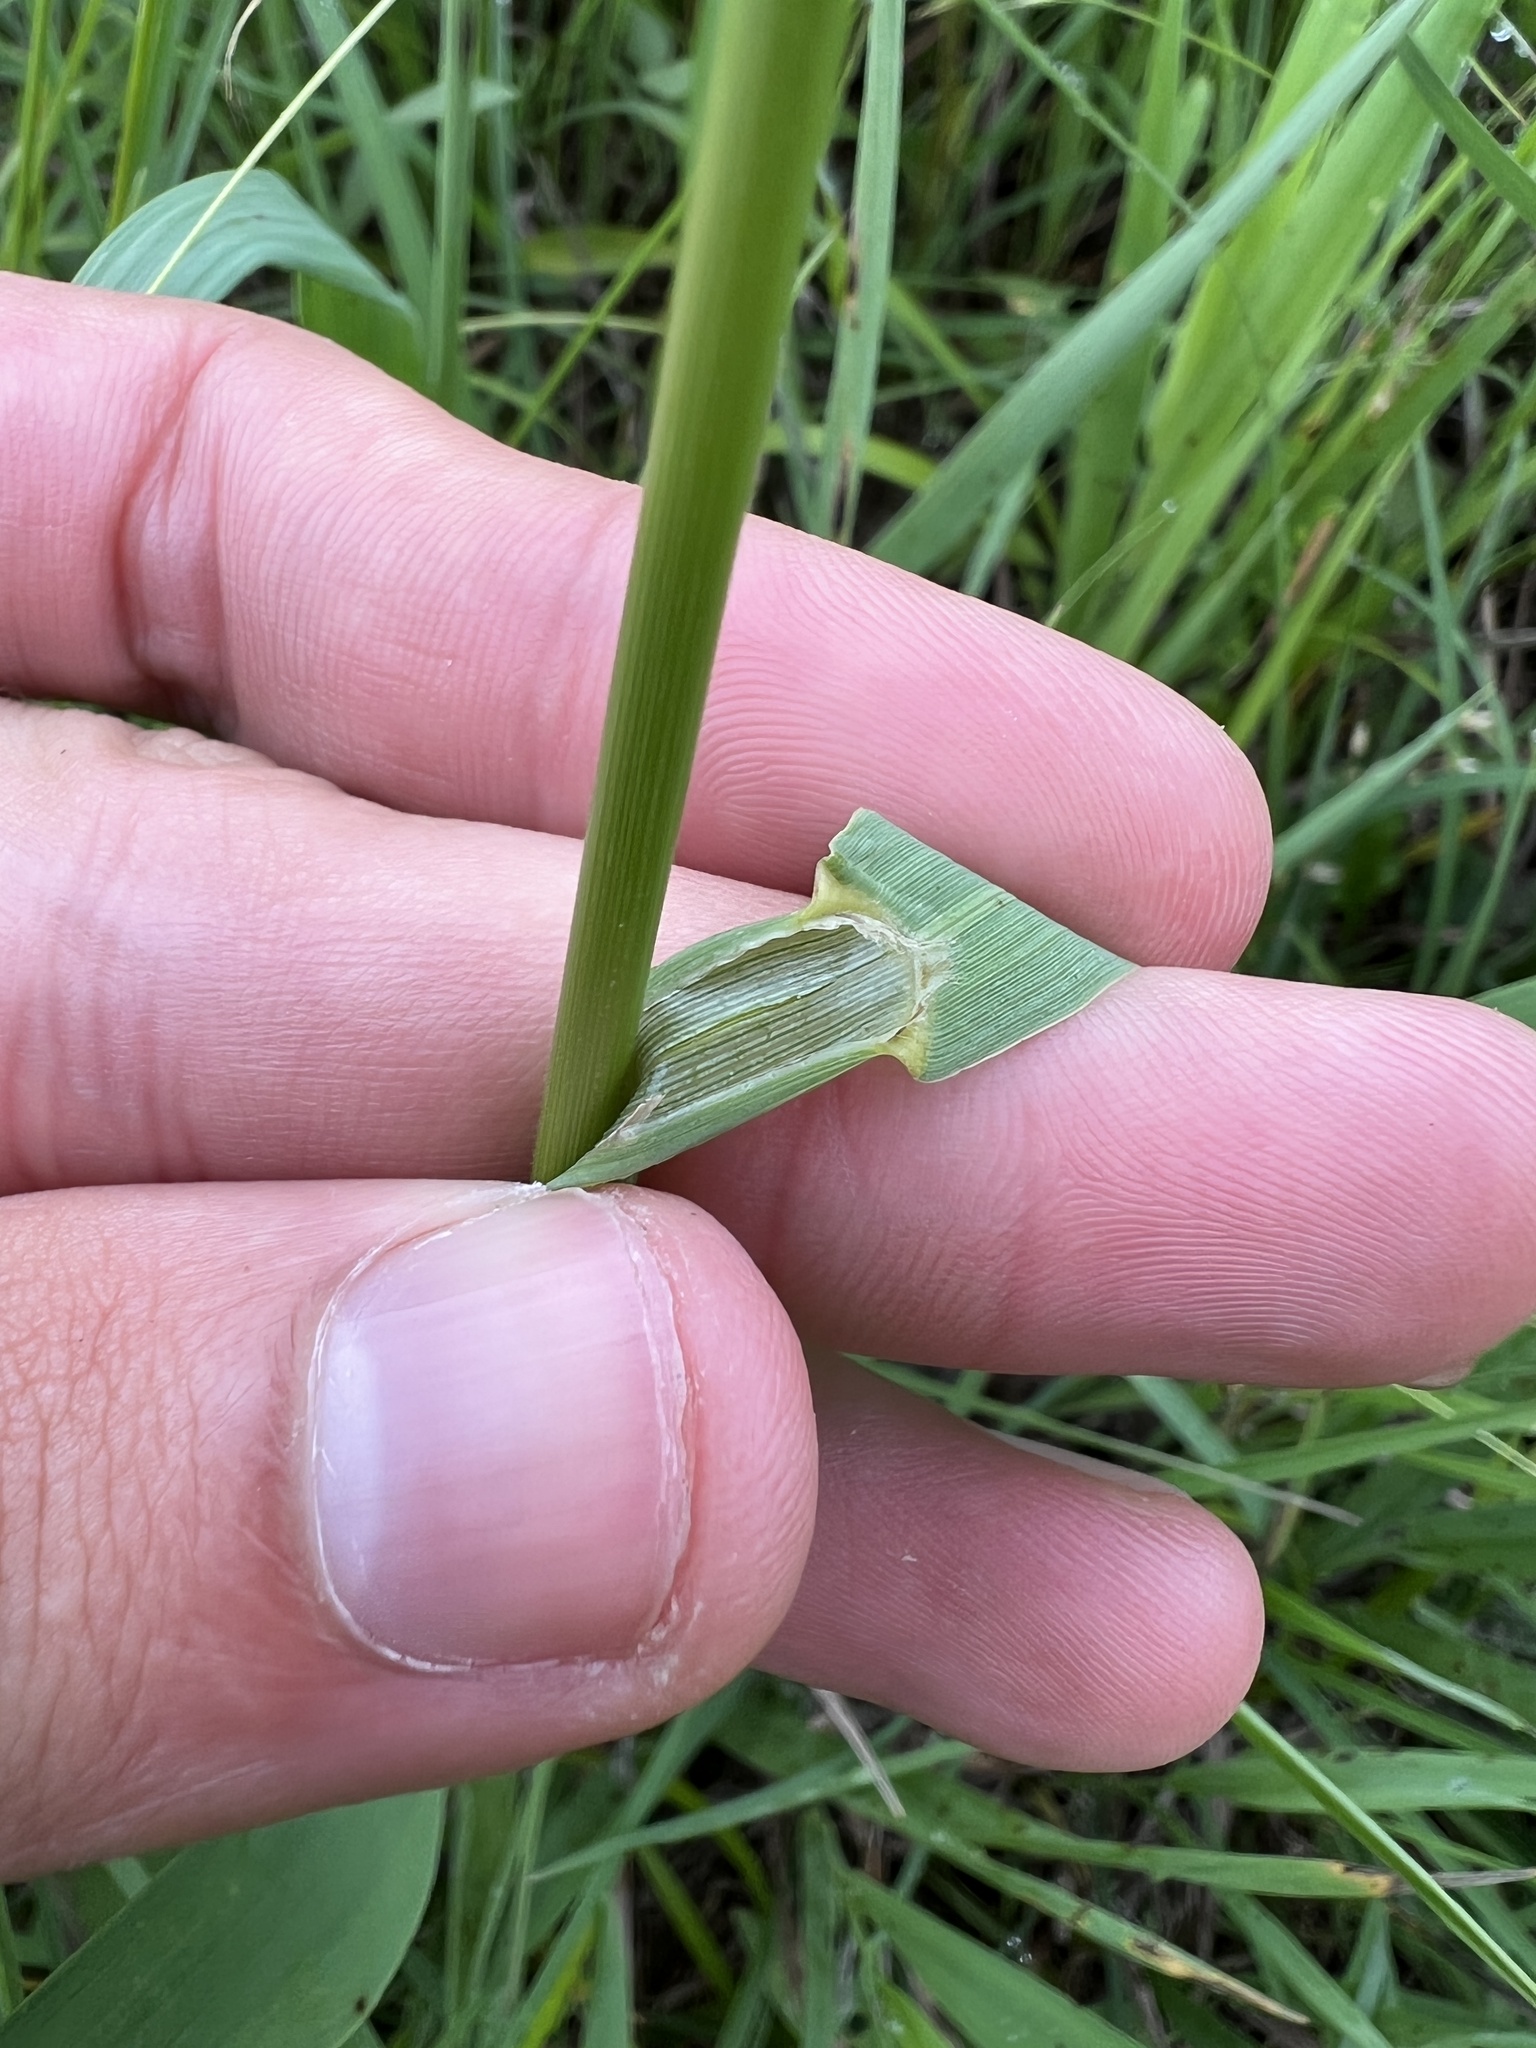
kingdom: Plantae
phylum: Tracheophyta
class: Liliopsida
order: Poales
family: Poaceae
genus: Bromus
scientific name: Bromus inermis
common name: Smooth brome
